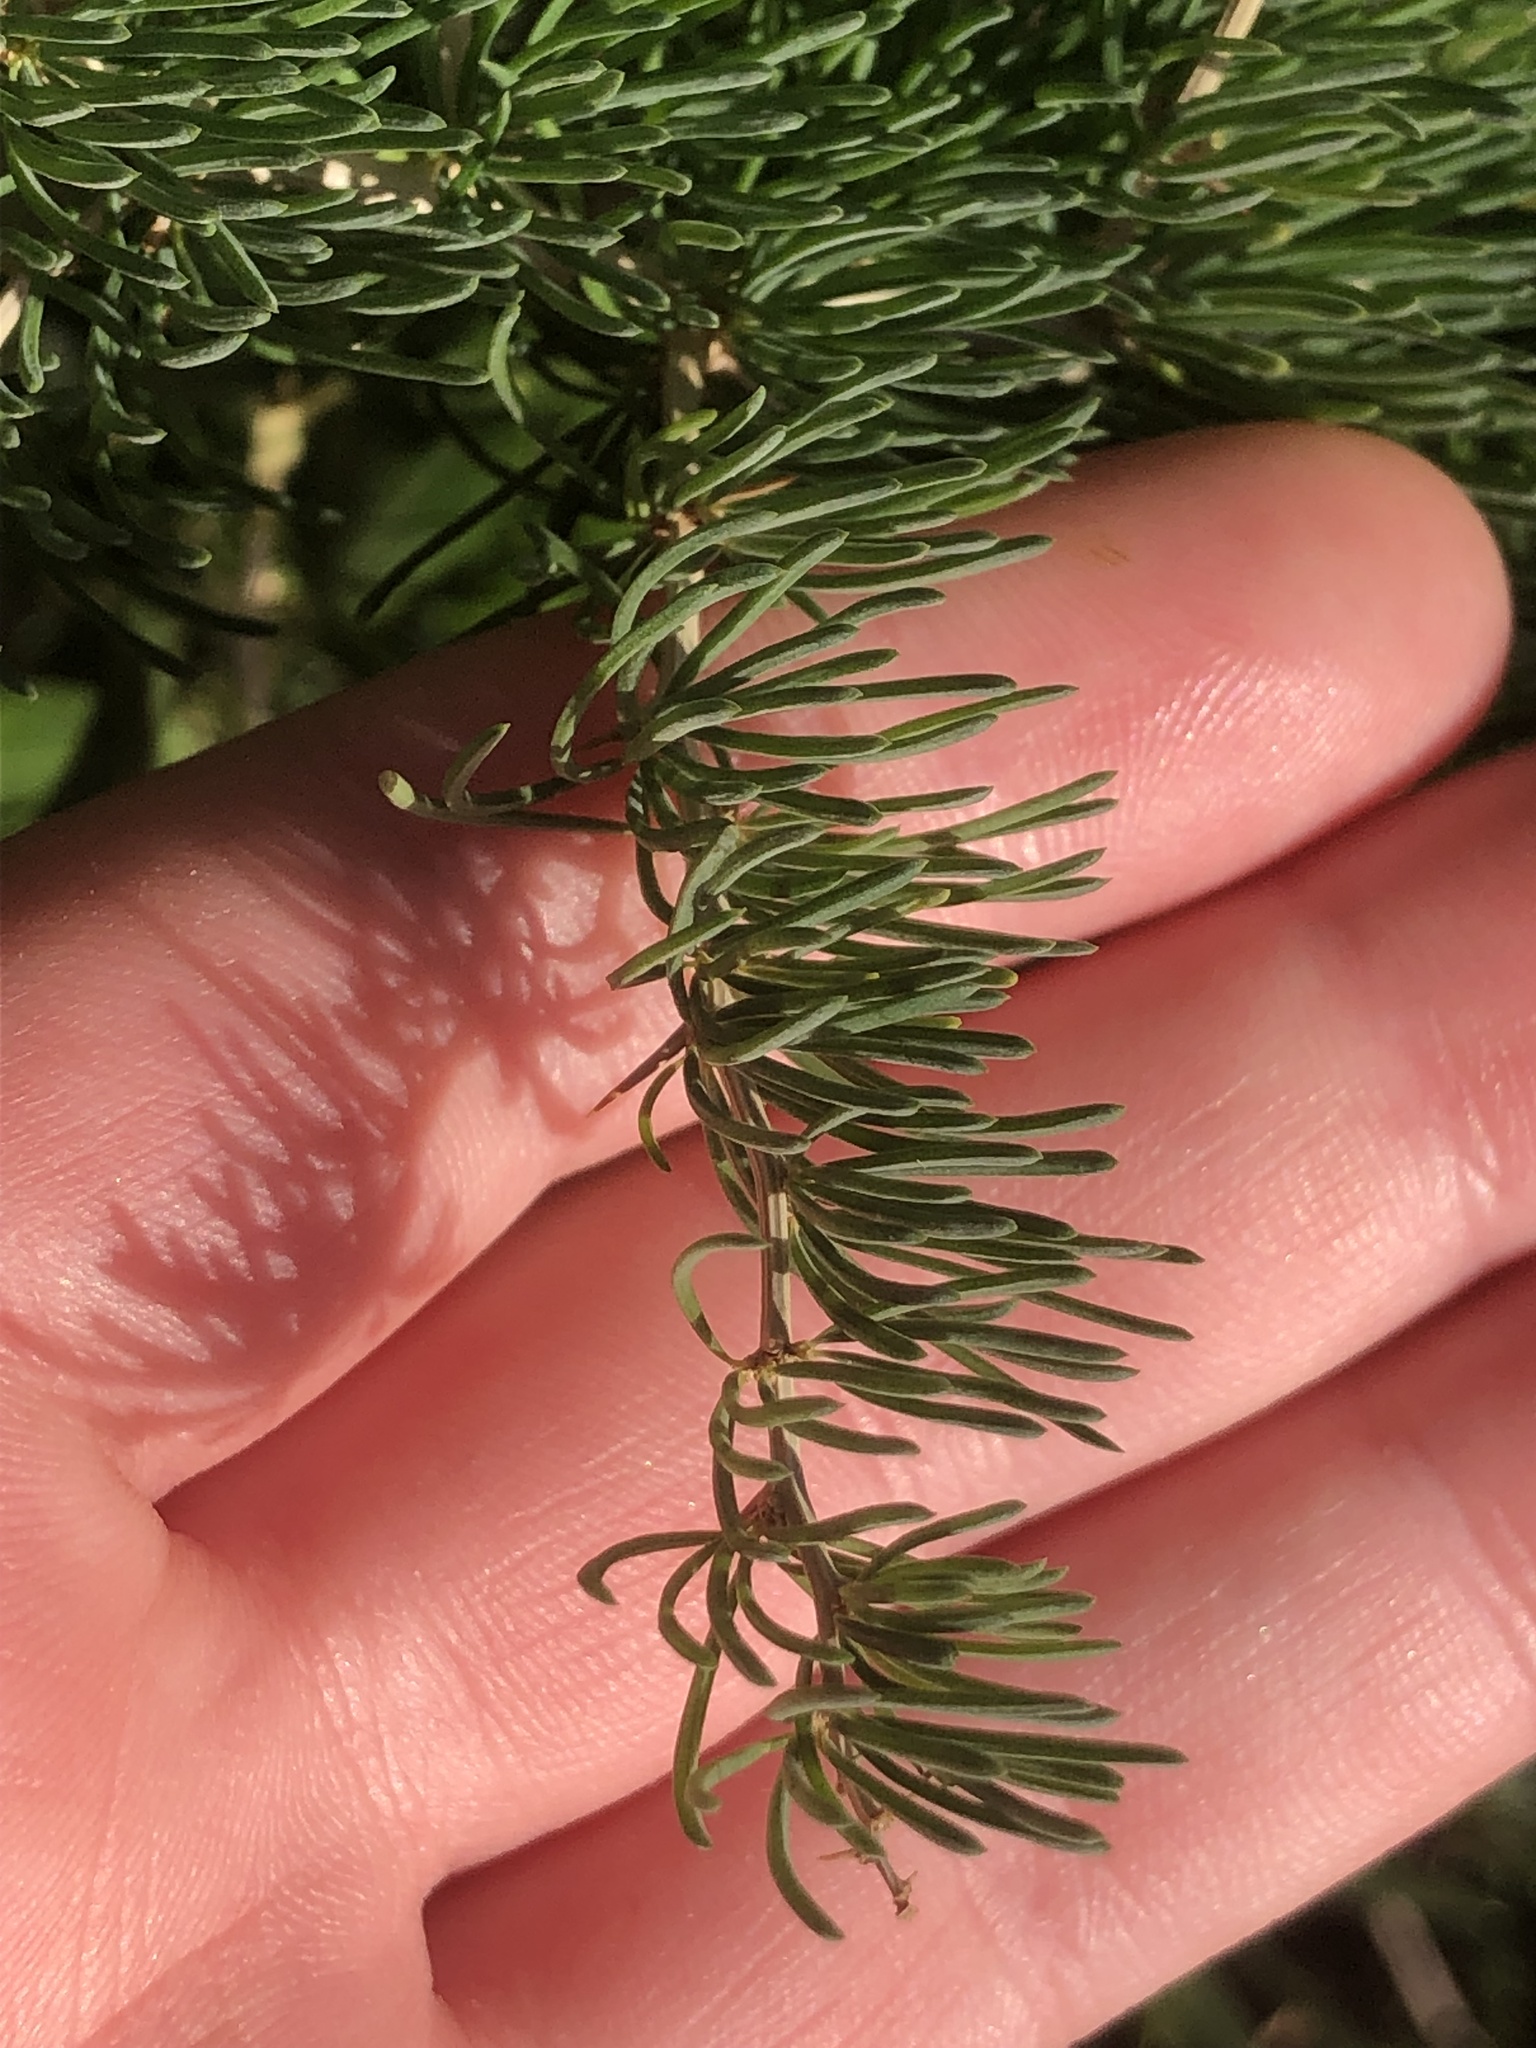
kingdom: Plantae
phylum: Tracheophyta
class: Liliopsida
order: Asparagales
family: Asparagaceae
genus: Asparagus
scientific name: Asparagus albus
